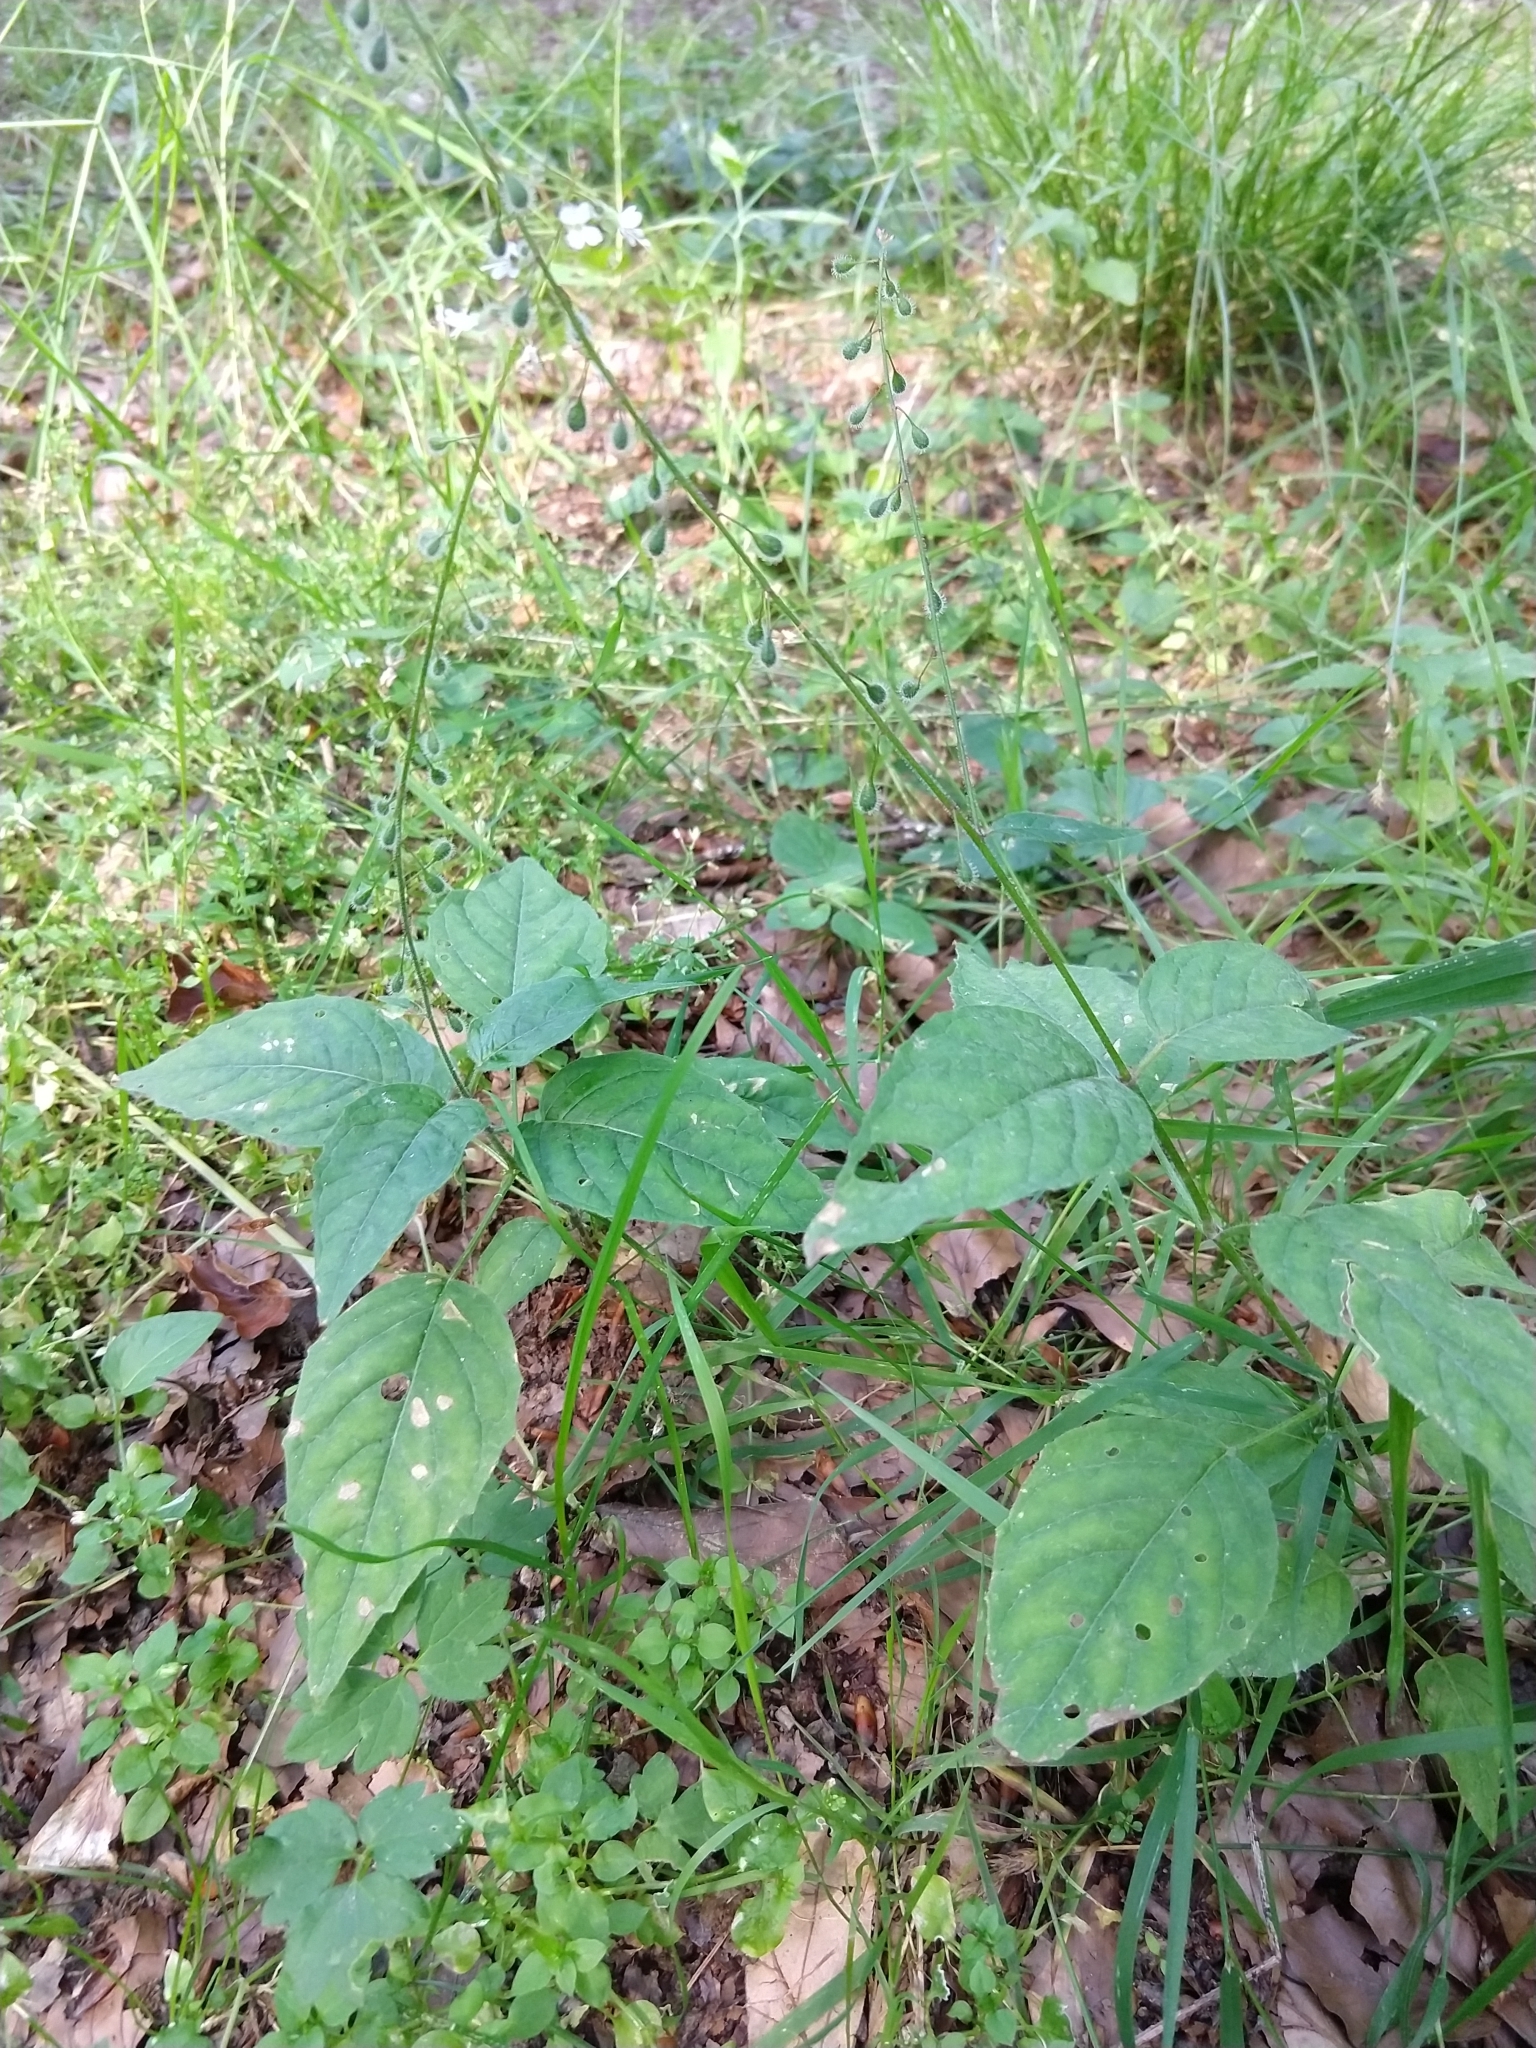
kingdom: Plantae
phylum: Tracheophyta
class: Magnoliopsida
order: Myrtales
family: Onagraceae
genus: Circaea
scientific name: Circaea lutetiana
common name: Enchanter's-nightshade
